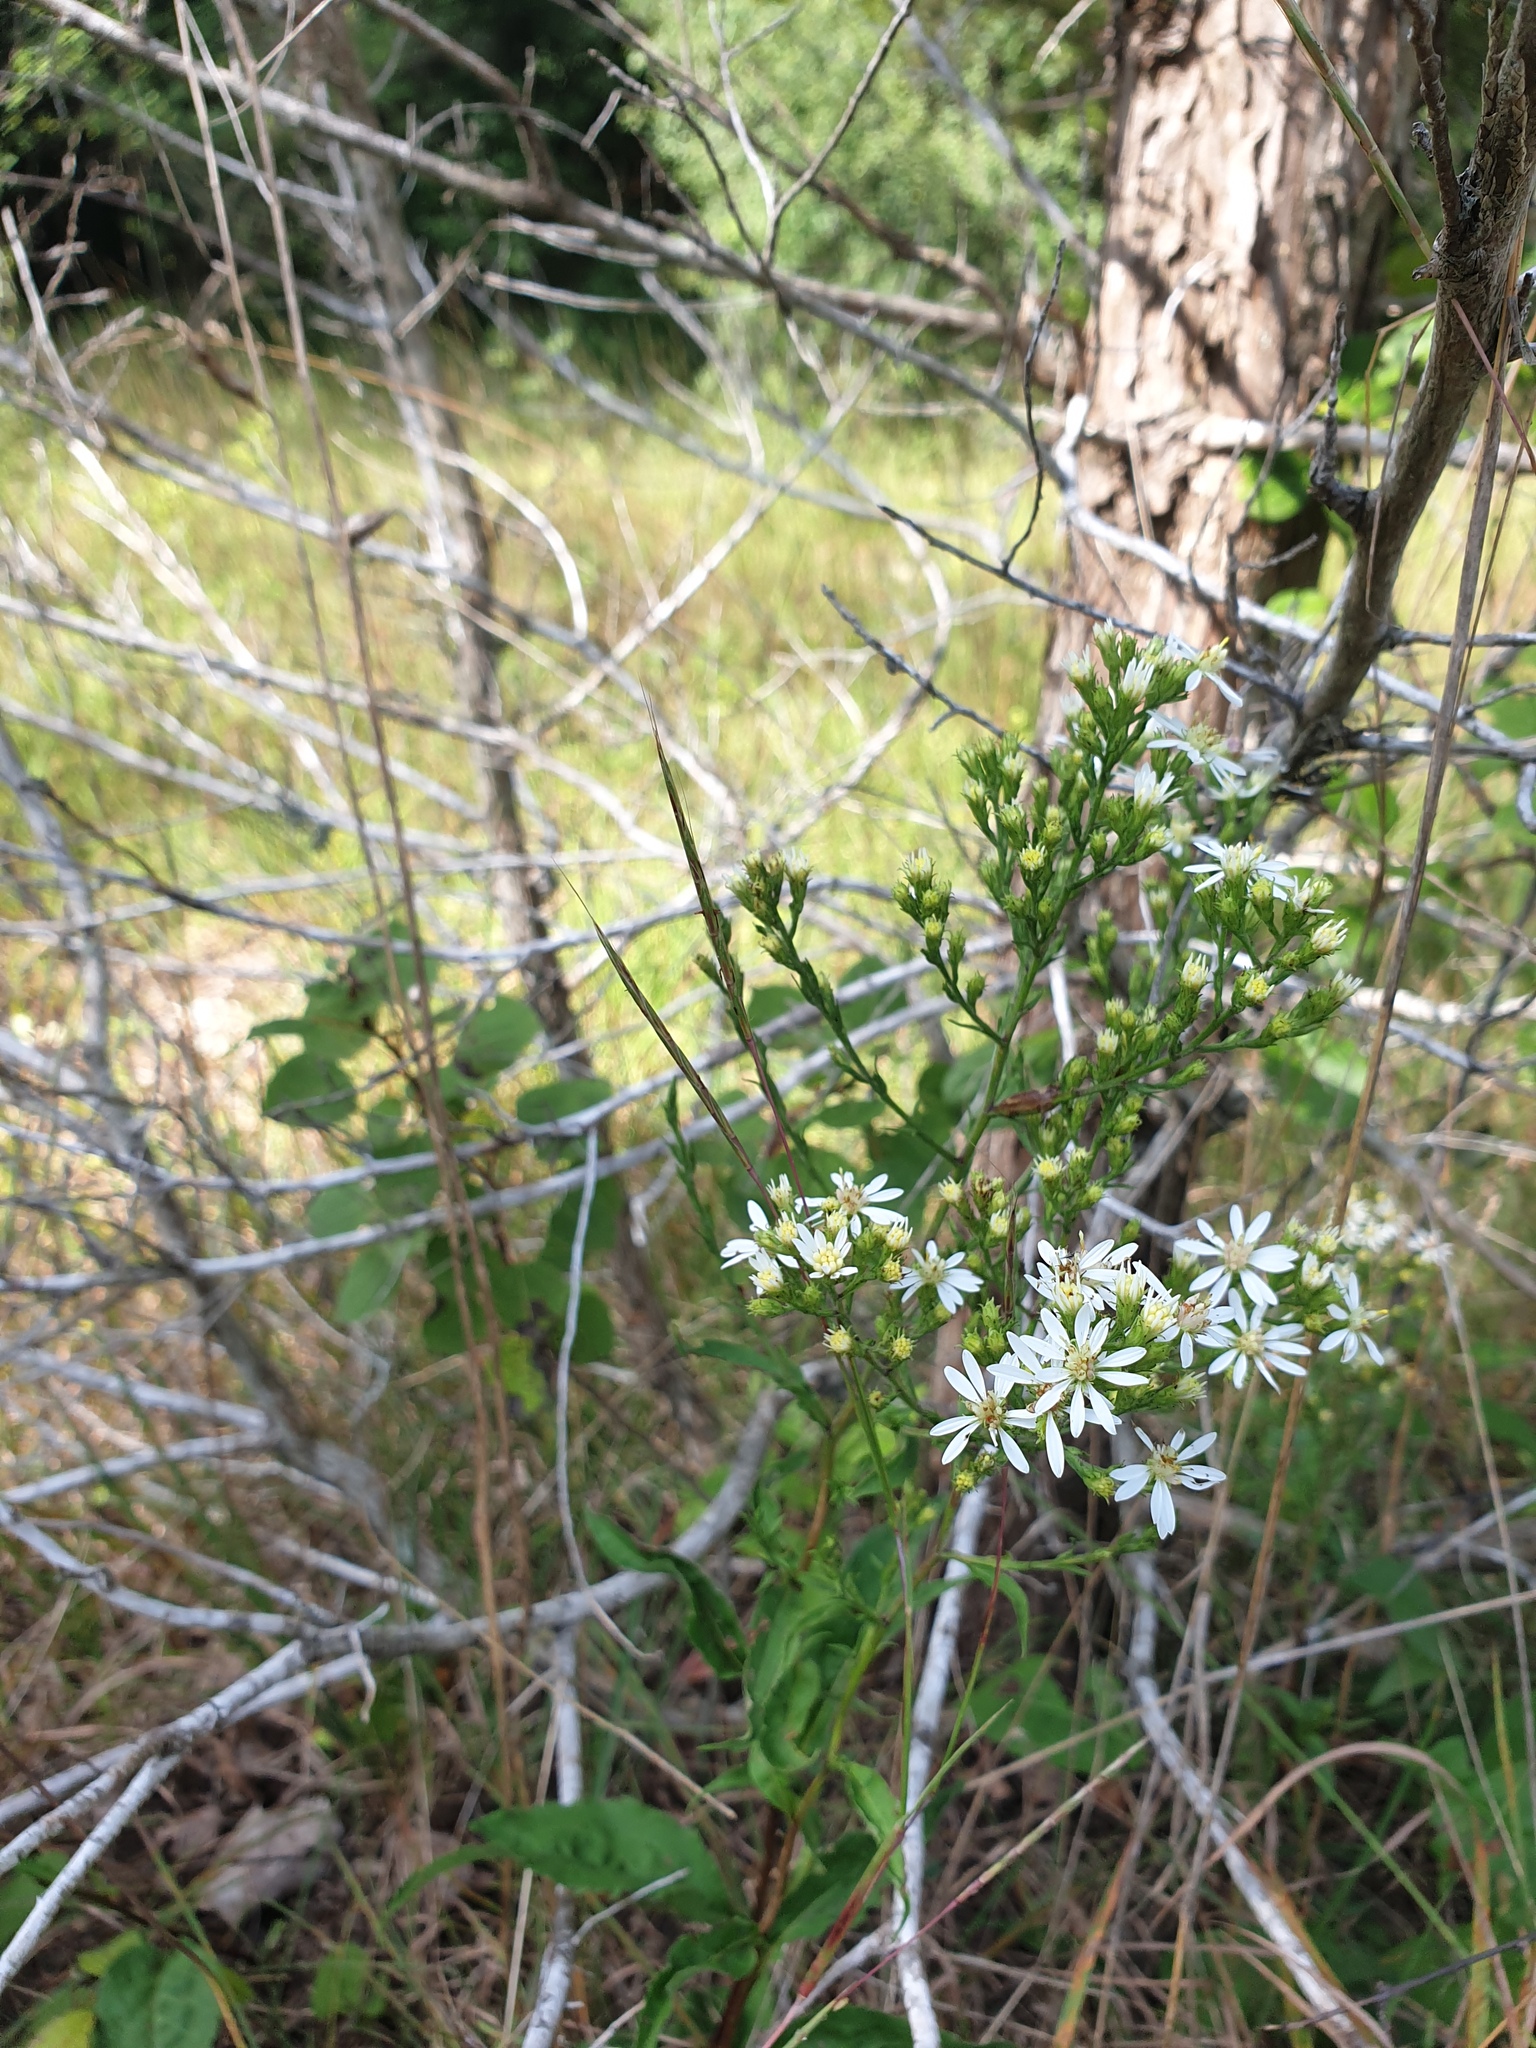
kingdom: Plantae
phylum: Tracheophyta
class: Magnoliopsida
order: Asterales
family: Asteraceae
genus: Symphyotrichum
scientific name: Symphyotrichum urophyllum
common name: Arrow-leaved aster
